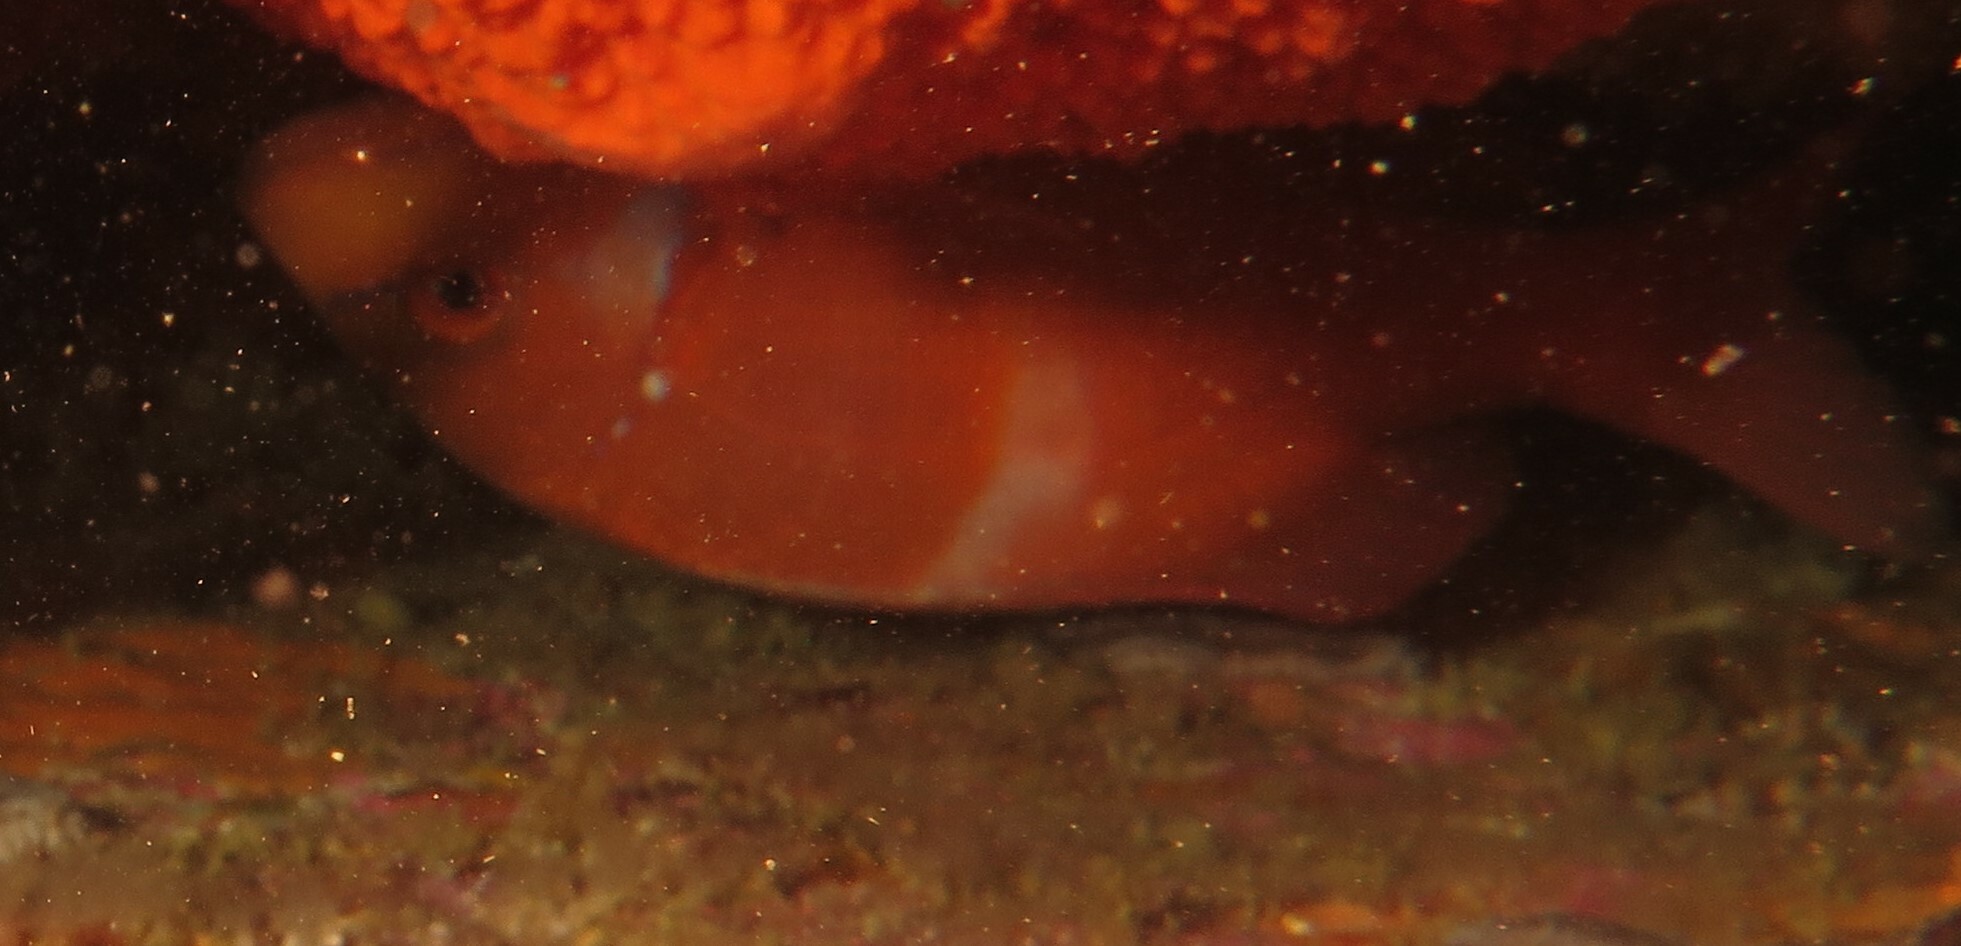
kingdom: Animalia
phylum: Chordata
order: Perciformes
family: Sparidae
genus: Chrysoblephus
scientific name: Chrysoblephus laticeps
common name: Roman seabream
